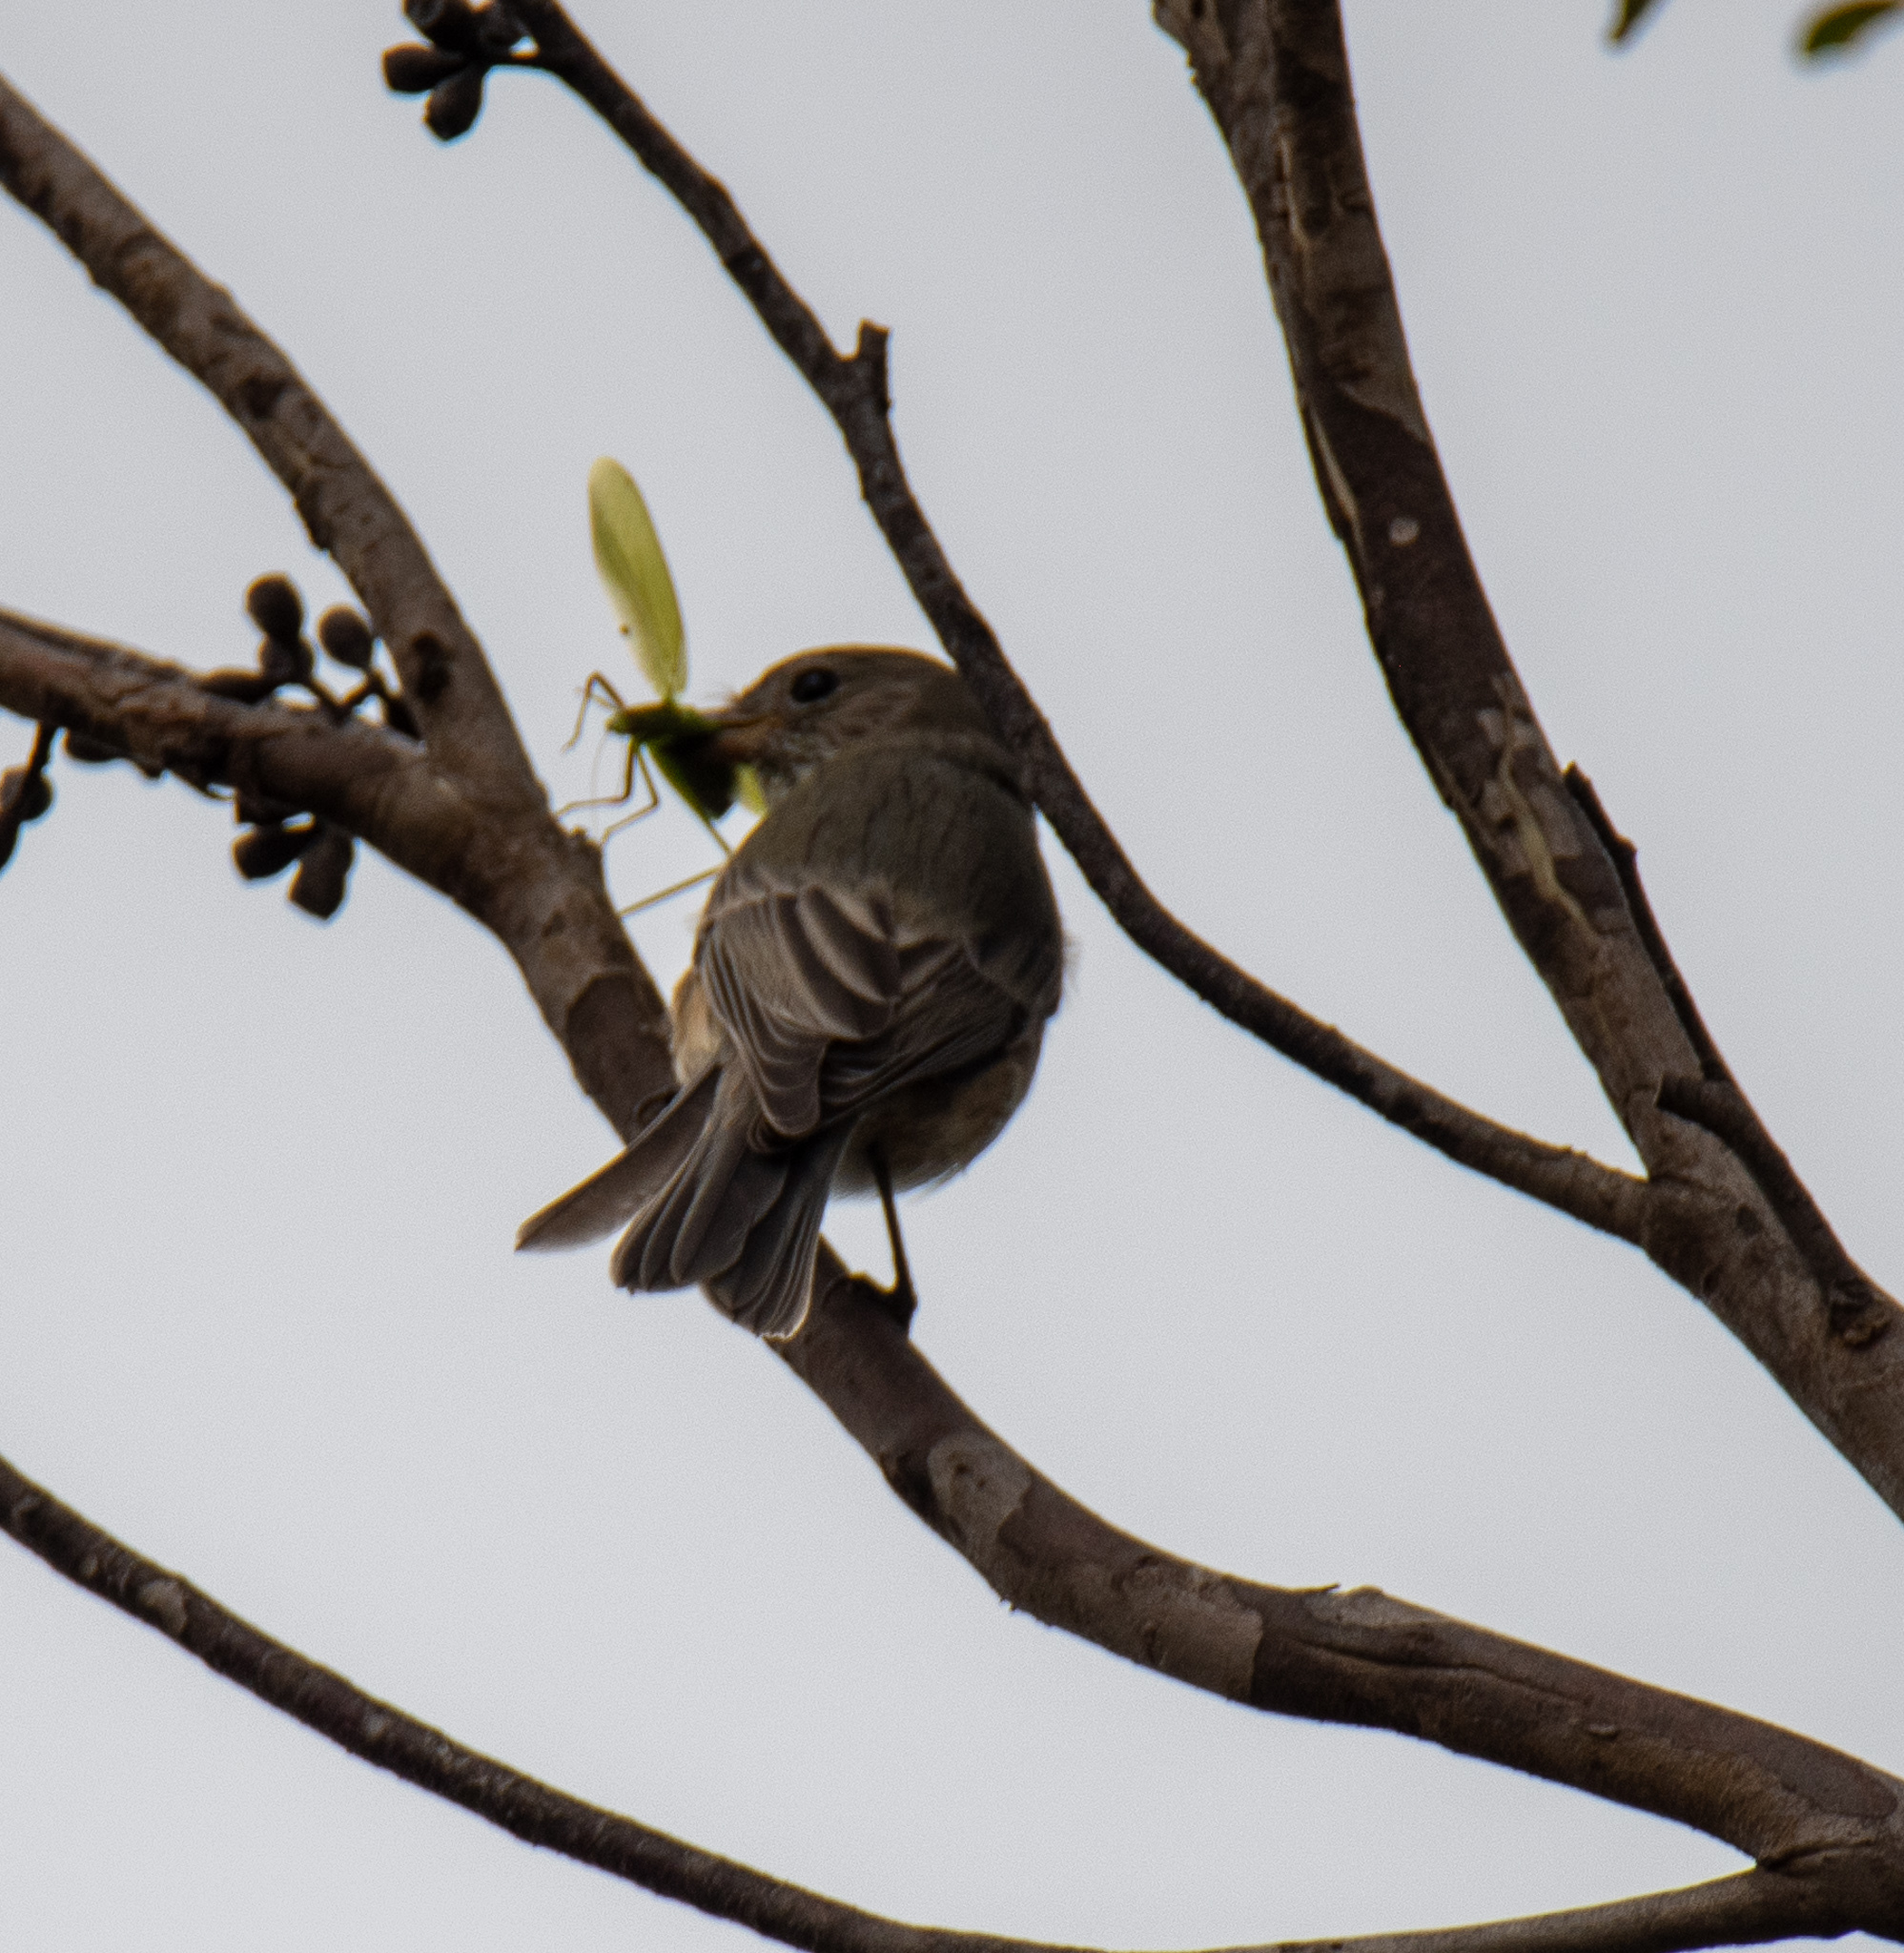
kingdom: Animalia
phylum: Chordata
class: Aves
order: Passeriformes
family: Pachycephalidae
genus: Pachycephala
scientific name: Pachycephala rufiventris
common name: Rufous whistler
